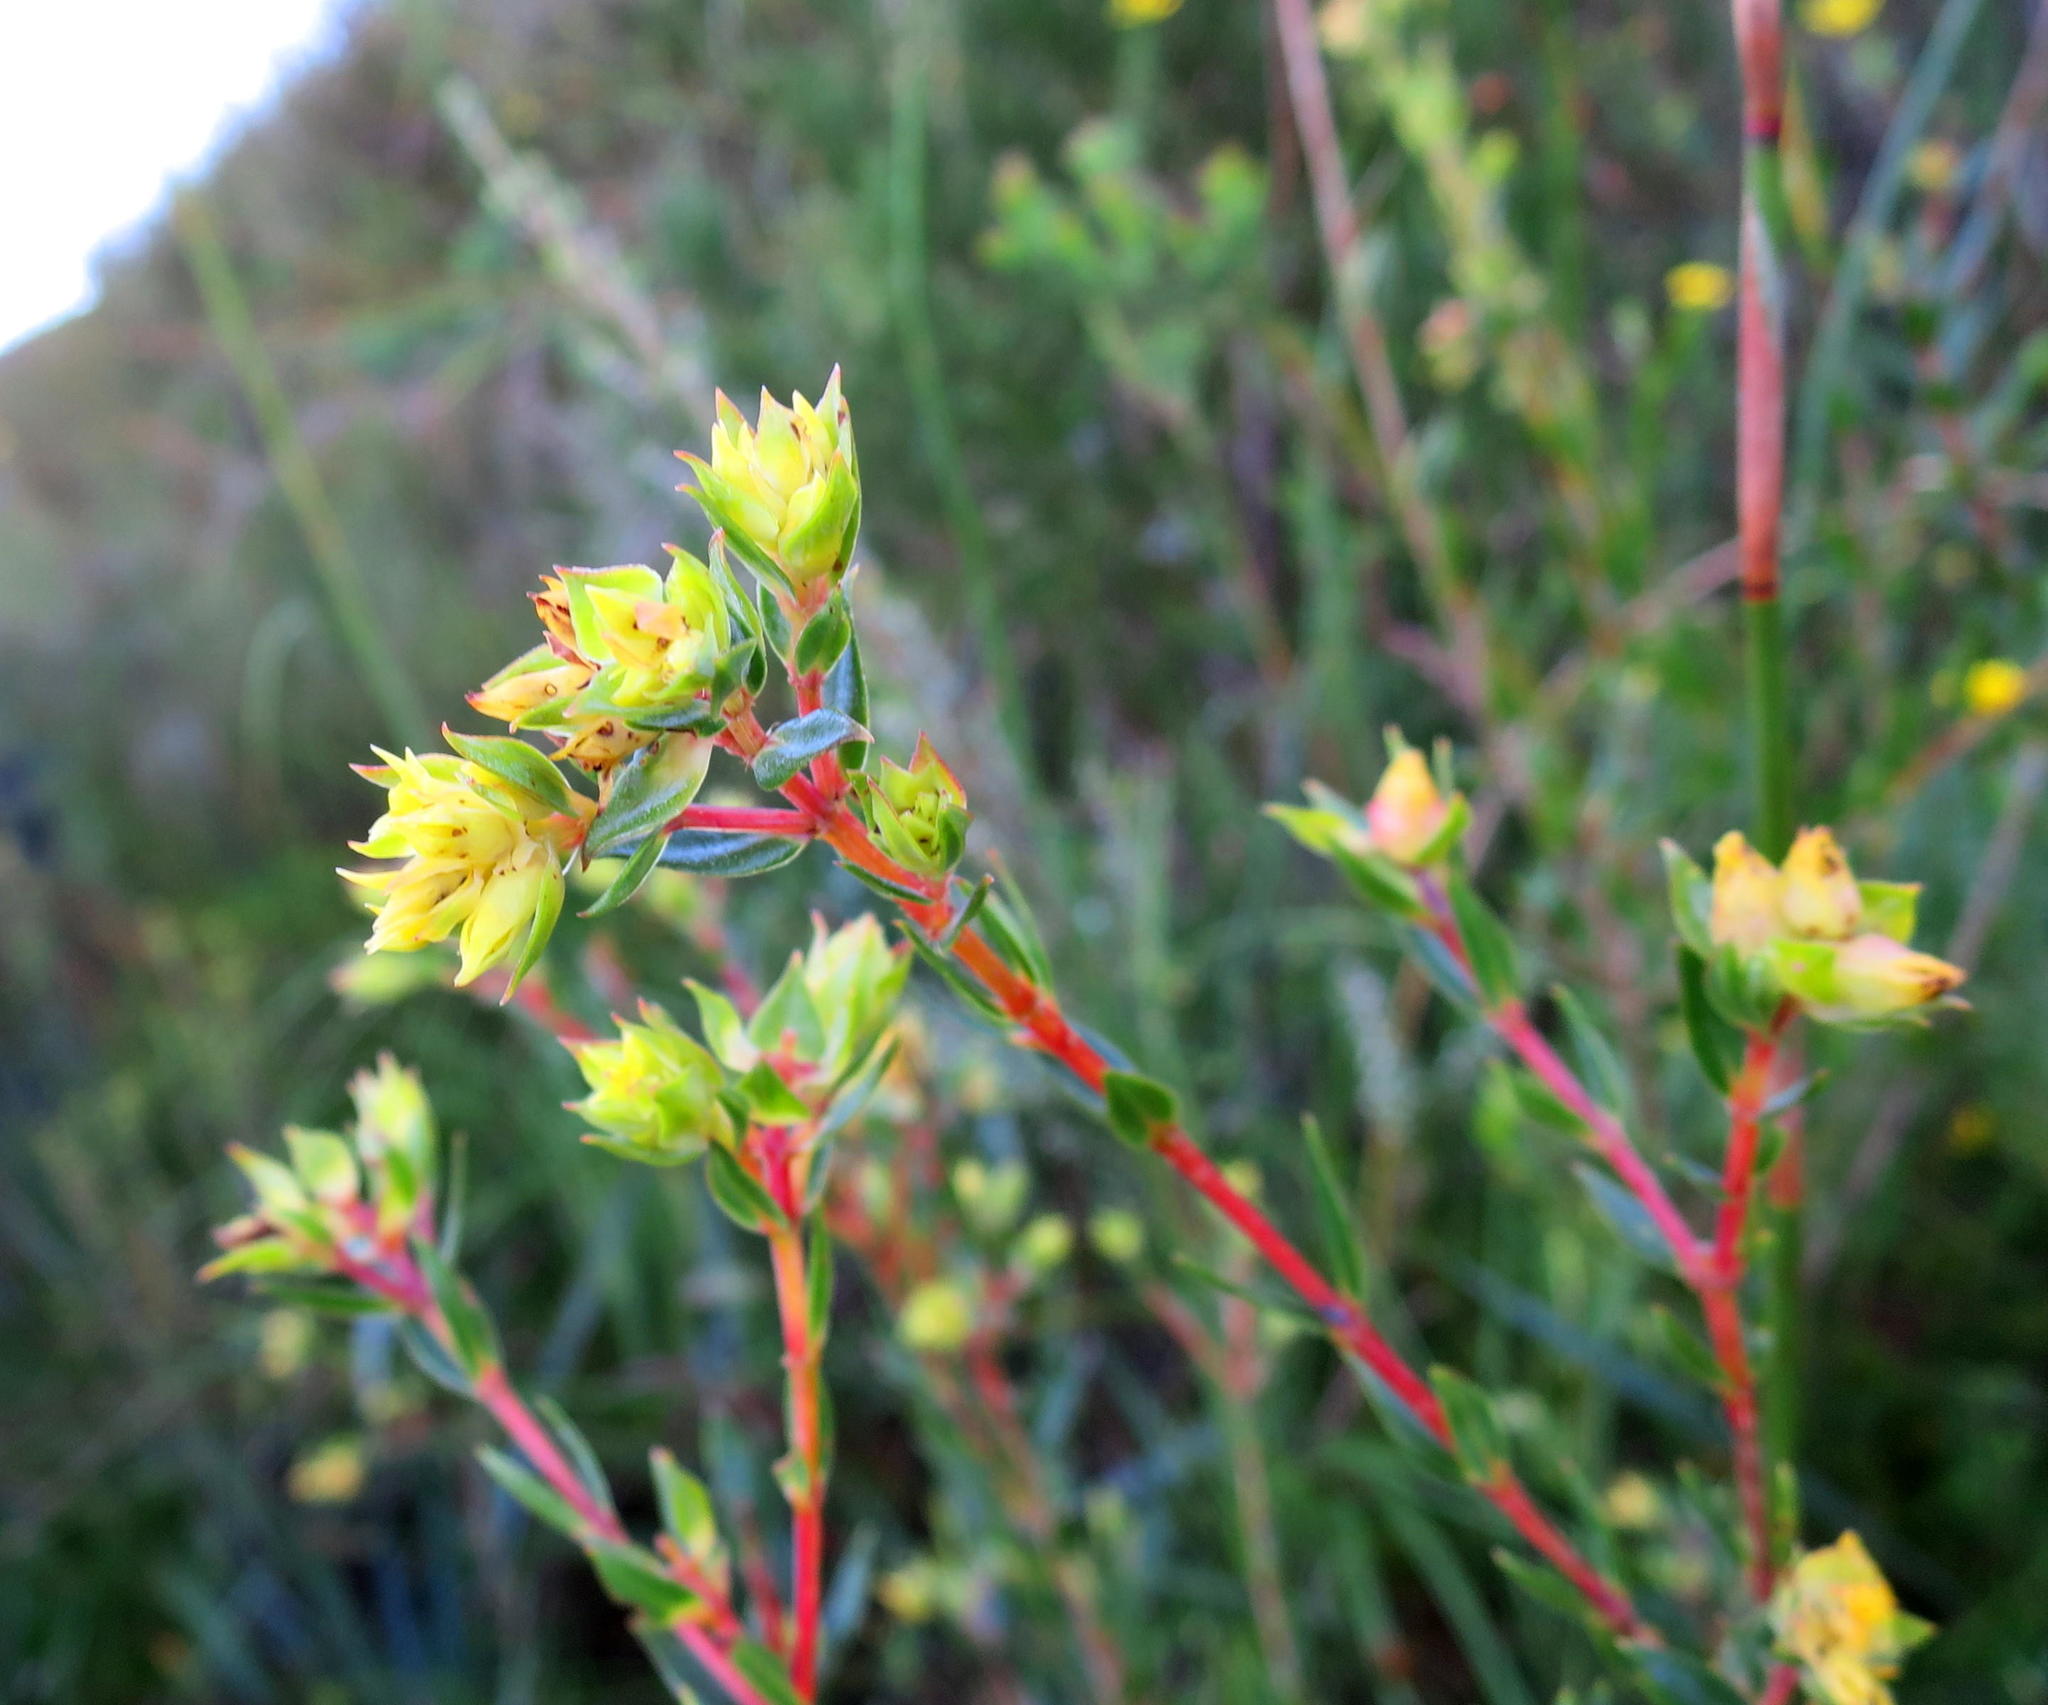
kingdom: Plantae
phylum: Tracheophyta
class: Magnoliopsida
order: Myrtales
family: Penaeaceae
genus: Penaea
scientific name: Penaea acutifolia
